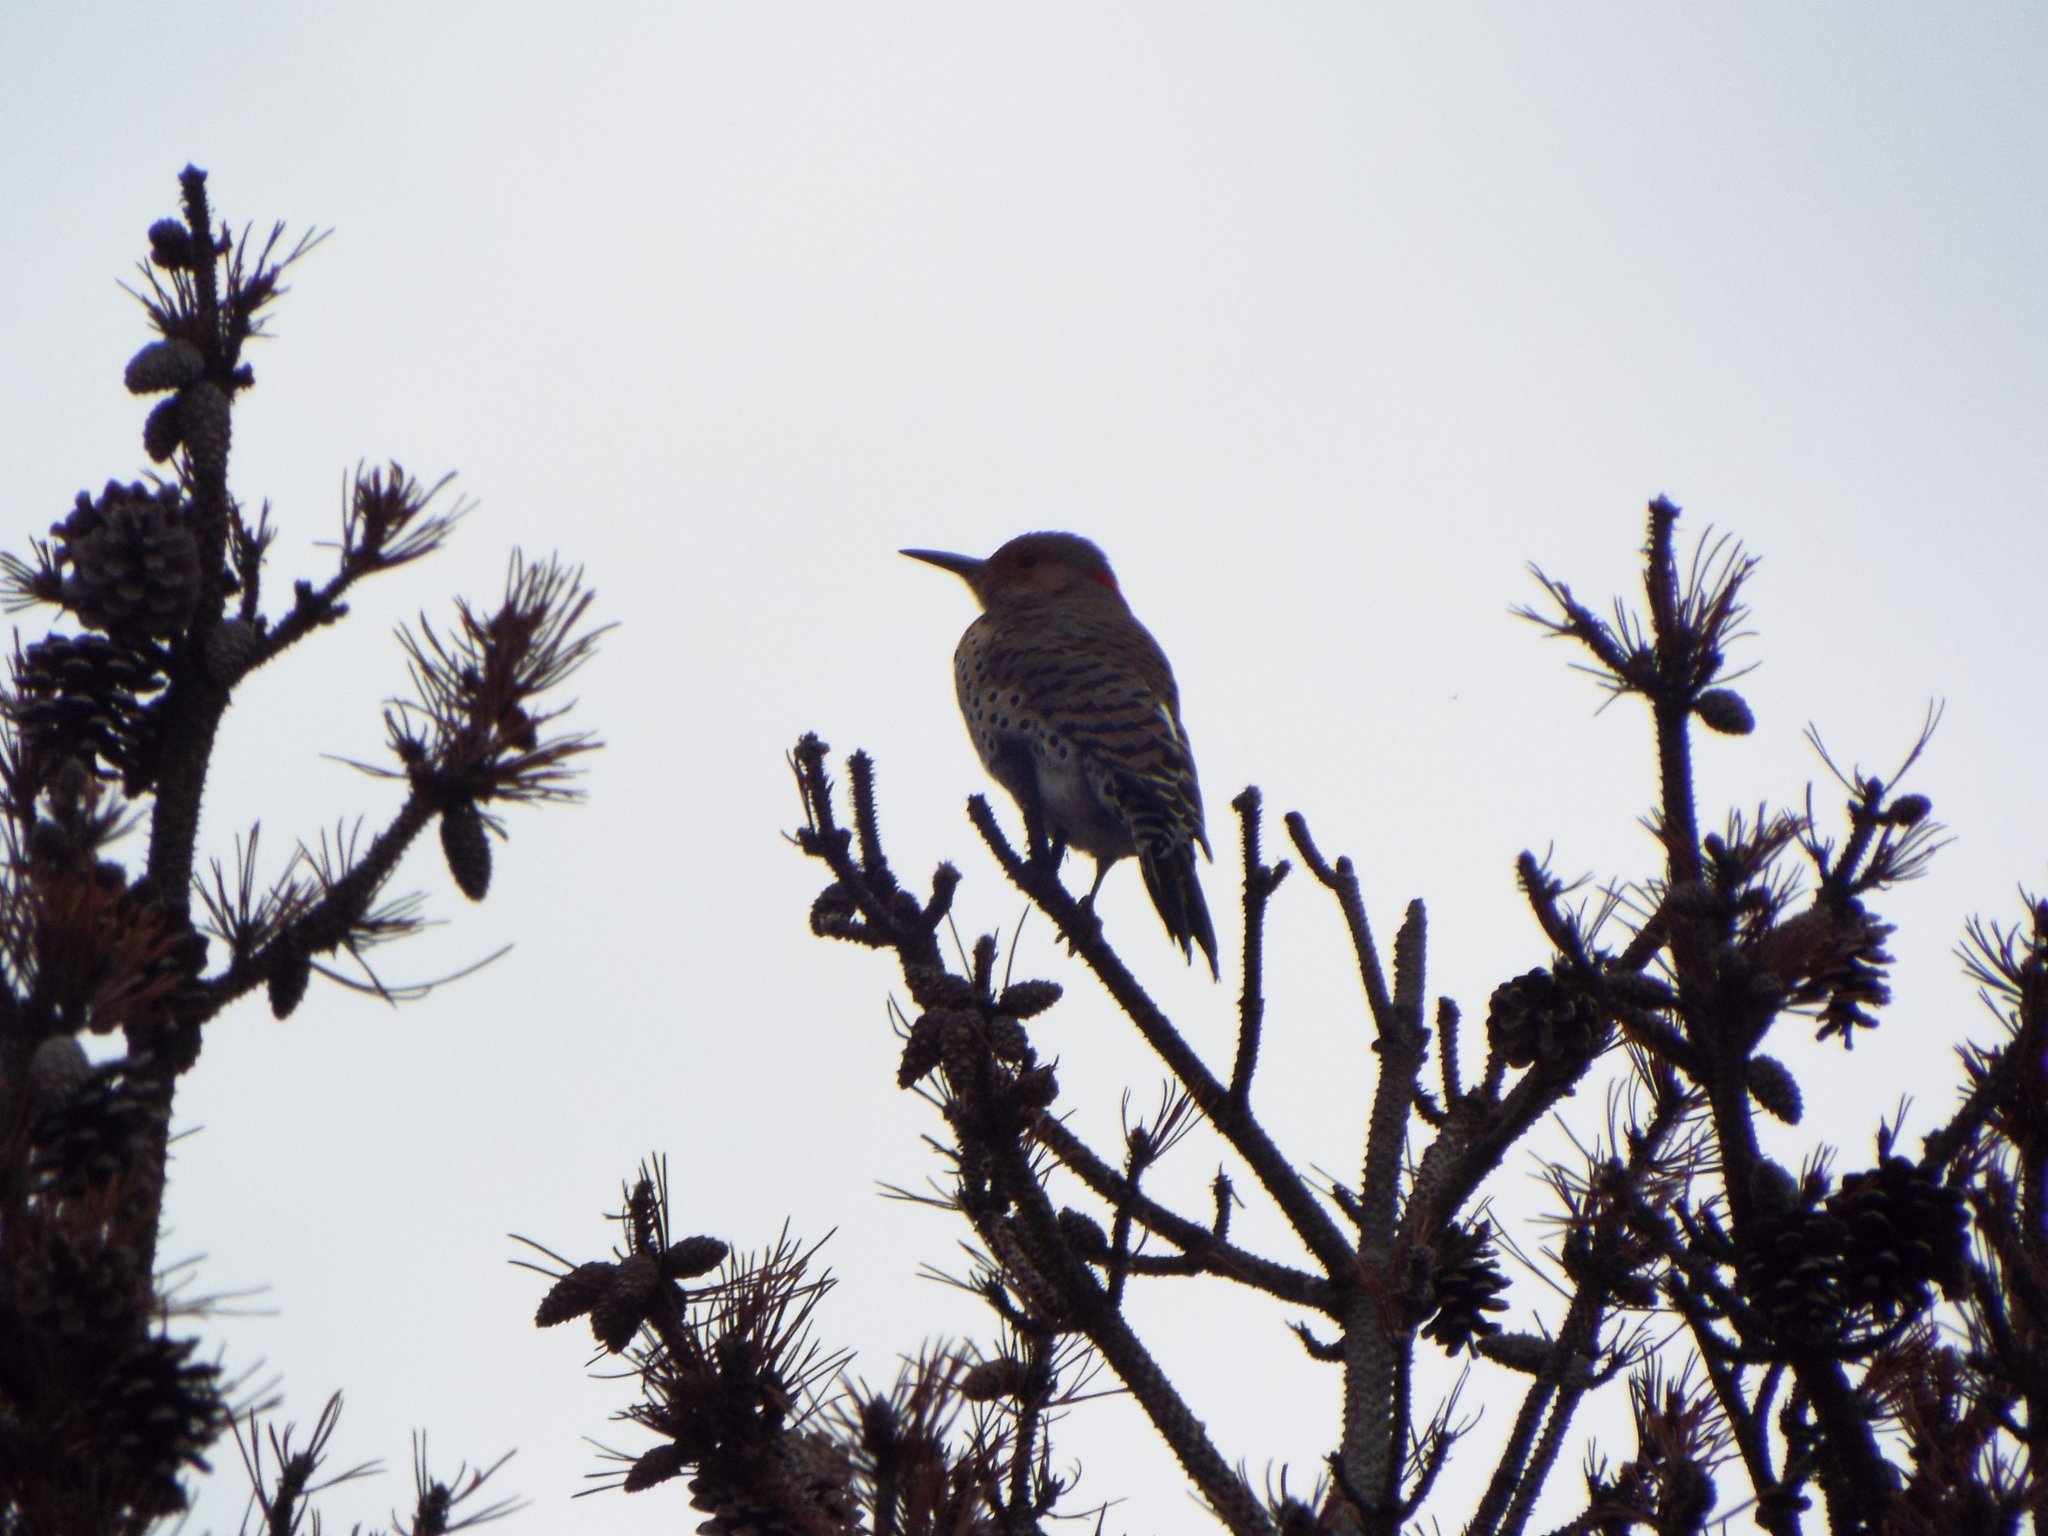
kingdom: Animalia
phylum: Chordata
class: Aves
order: Piciformes
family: Picidae
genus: Colaptes
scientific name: Colaptes auratus
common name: Northern flicker
